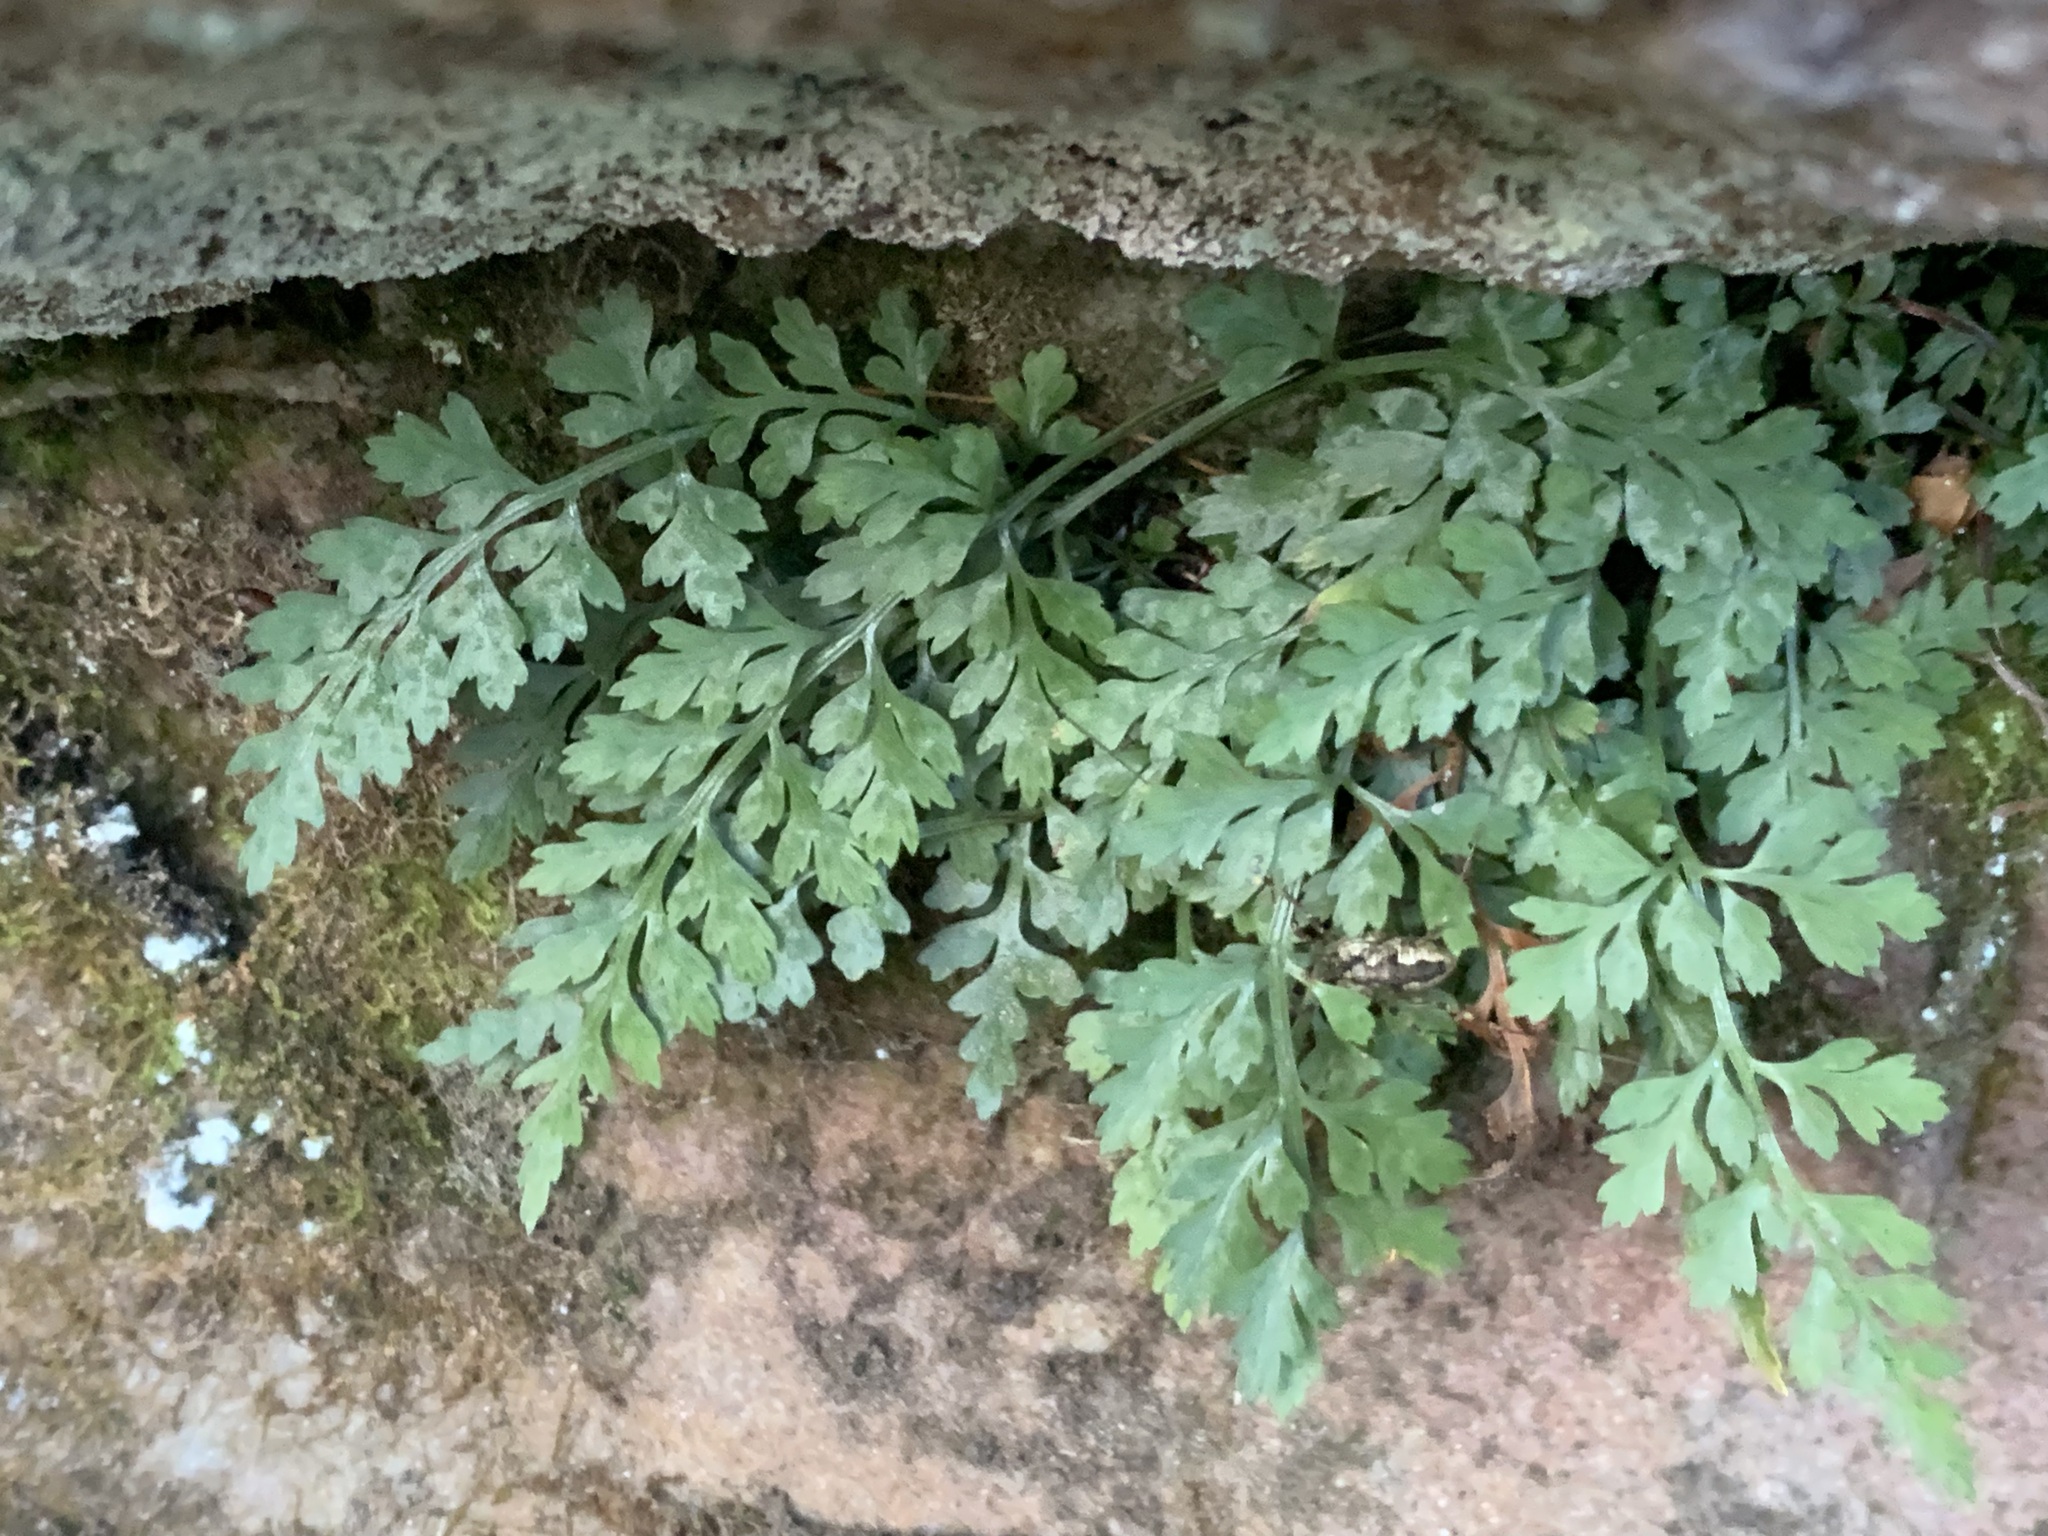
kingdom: Plantae
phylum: Tracheophyta
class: Polypodiopsida
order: Polypodiales
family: Aspleniaceae
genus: Asplenium
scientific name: Asplenium montanum
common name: Mountain spleenwort
